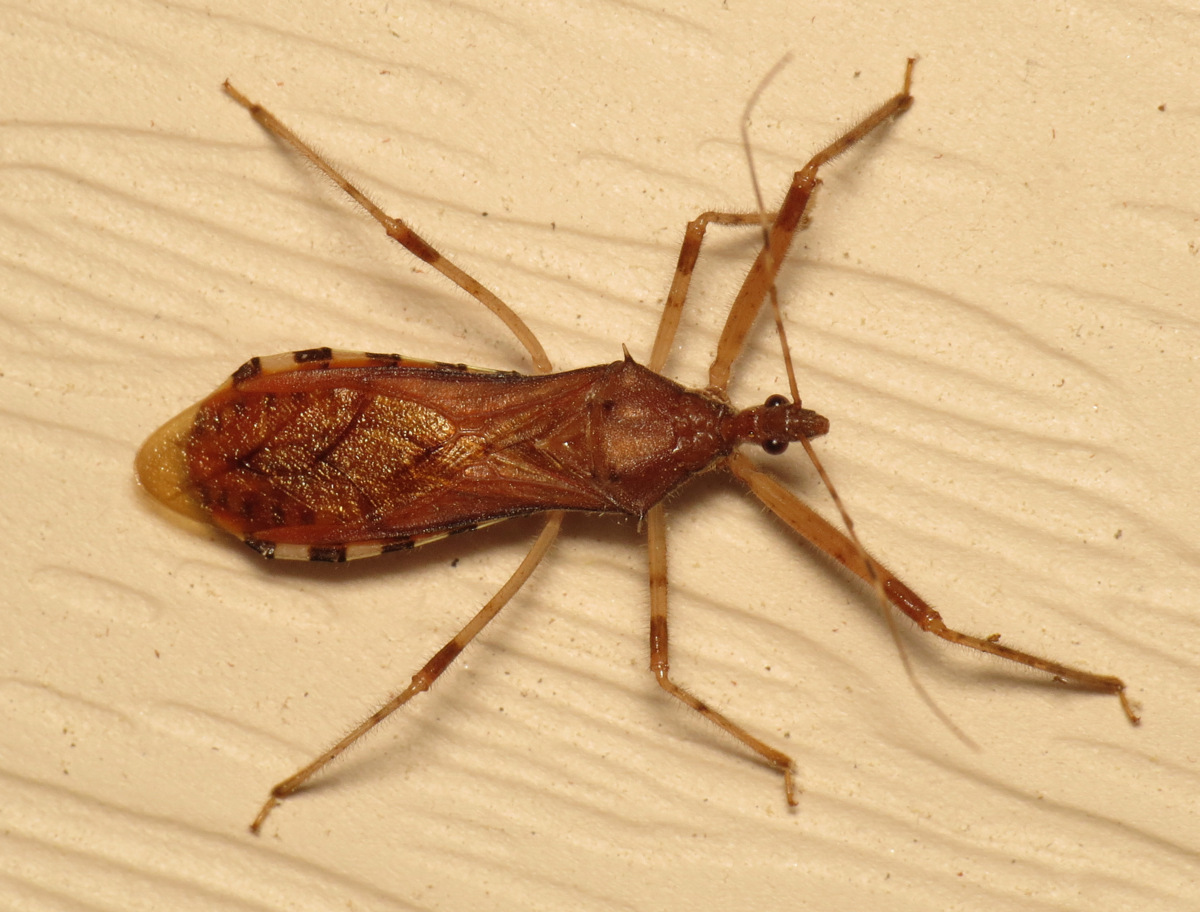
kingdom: Animalia
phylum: Arthropoda
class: Insecta
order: Hemiptera
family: Reduviidae
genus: Rocconota
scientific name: Rocconota annulicornis
